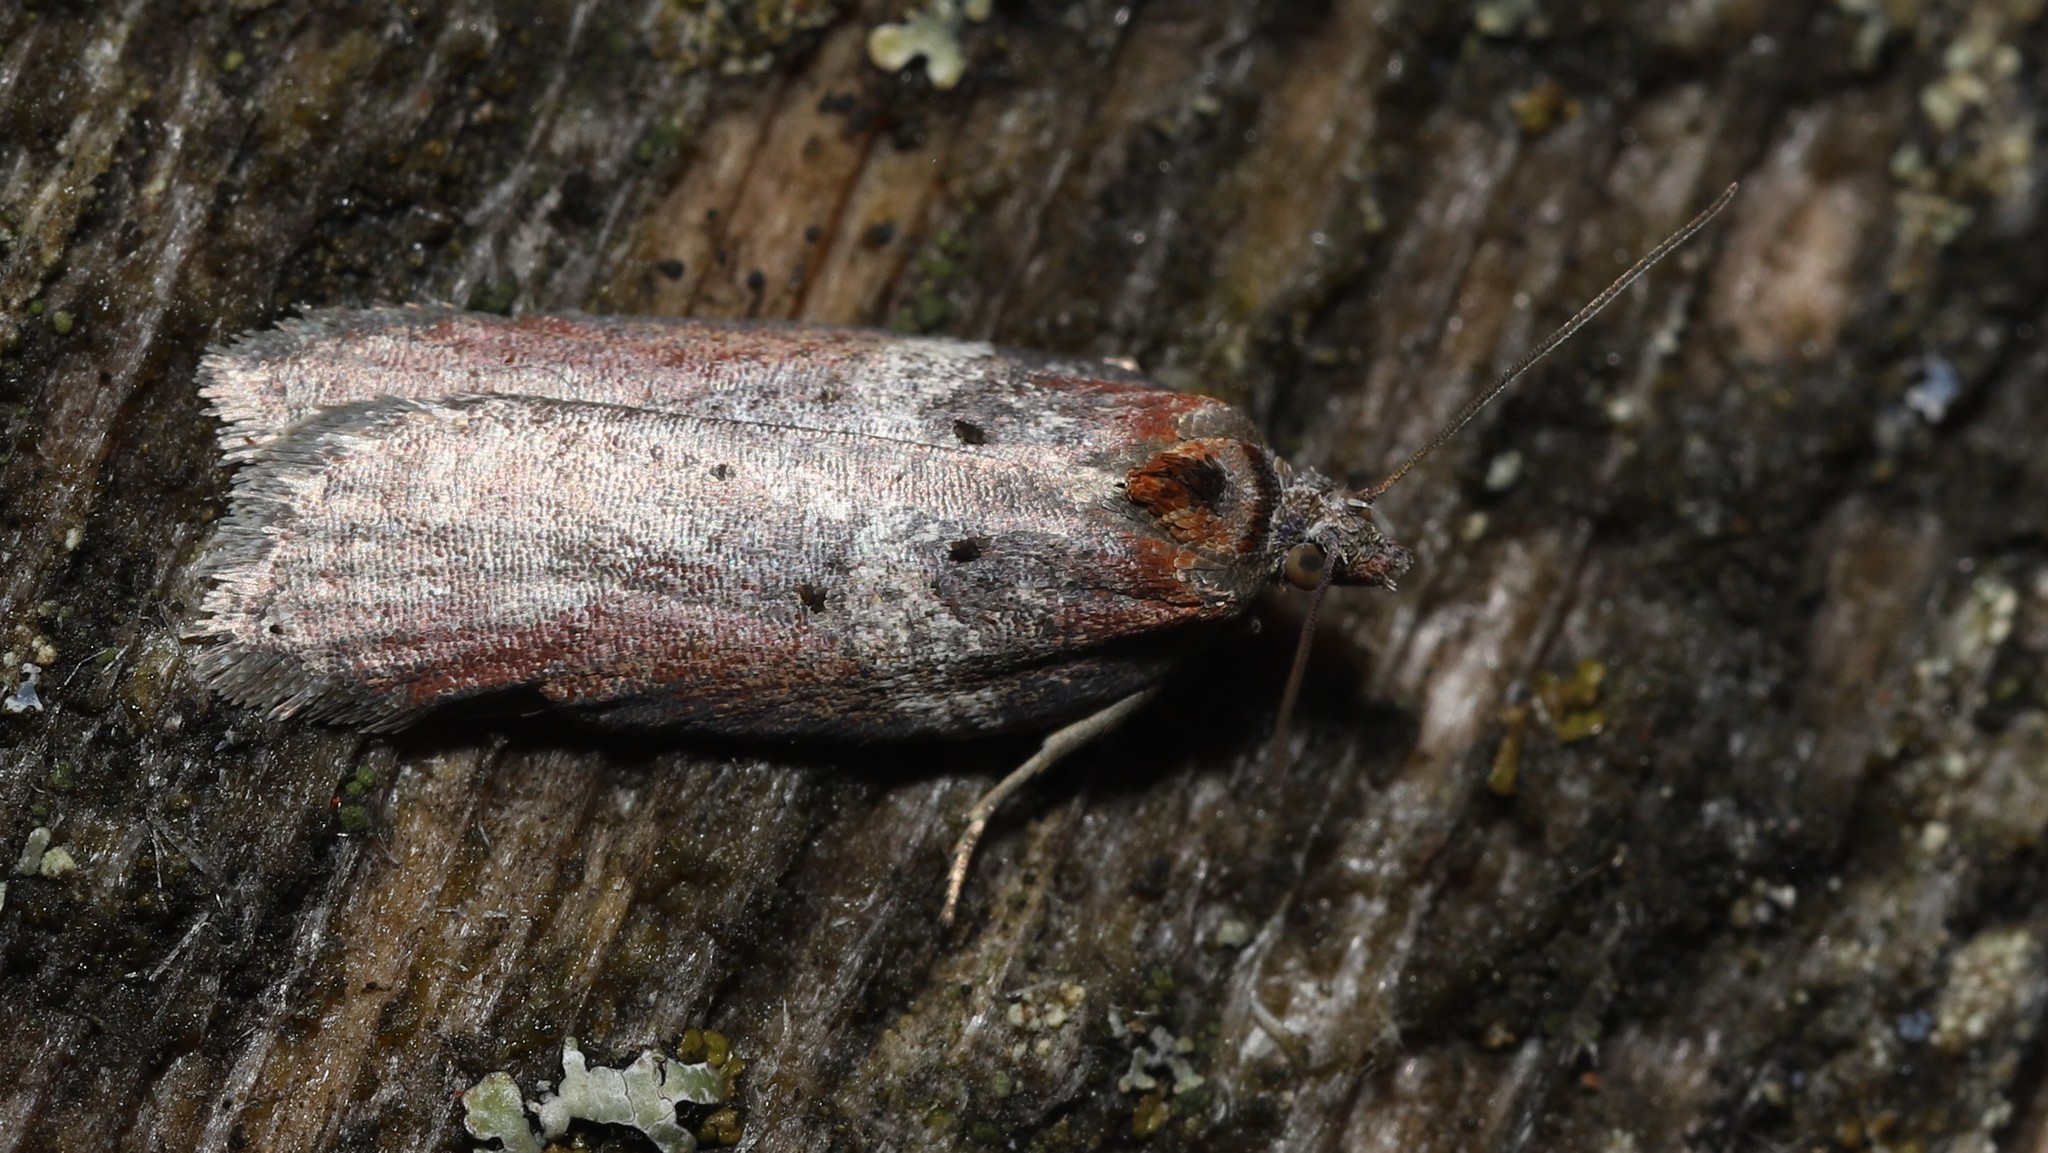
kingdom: Animalia
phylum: Arthropoda
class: Insecta
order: Lepidoptera
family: Tortricidae
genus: Acleris
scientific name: Acleris celiana
